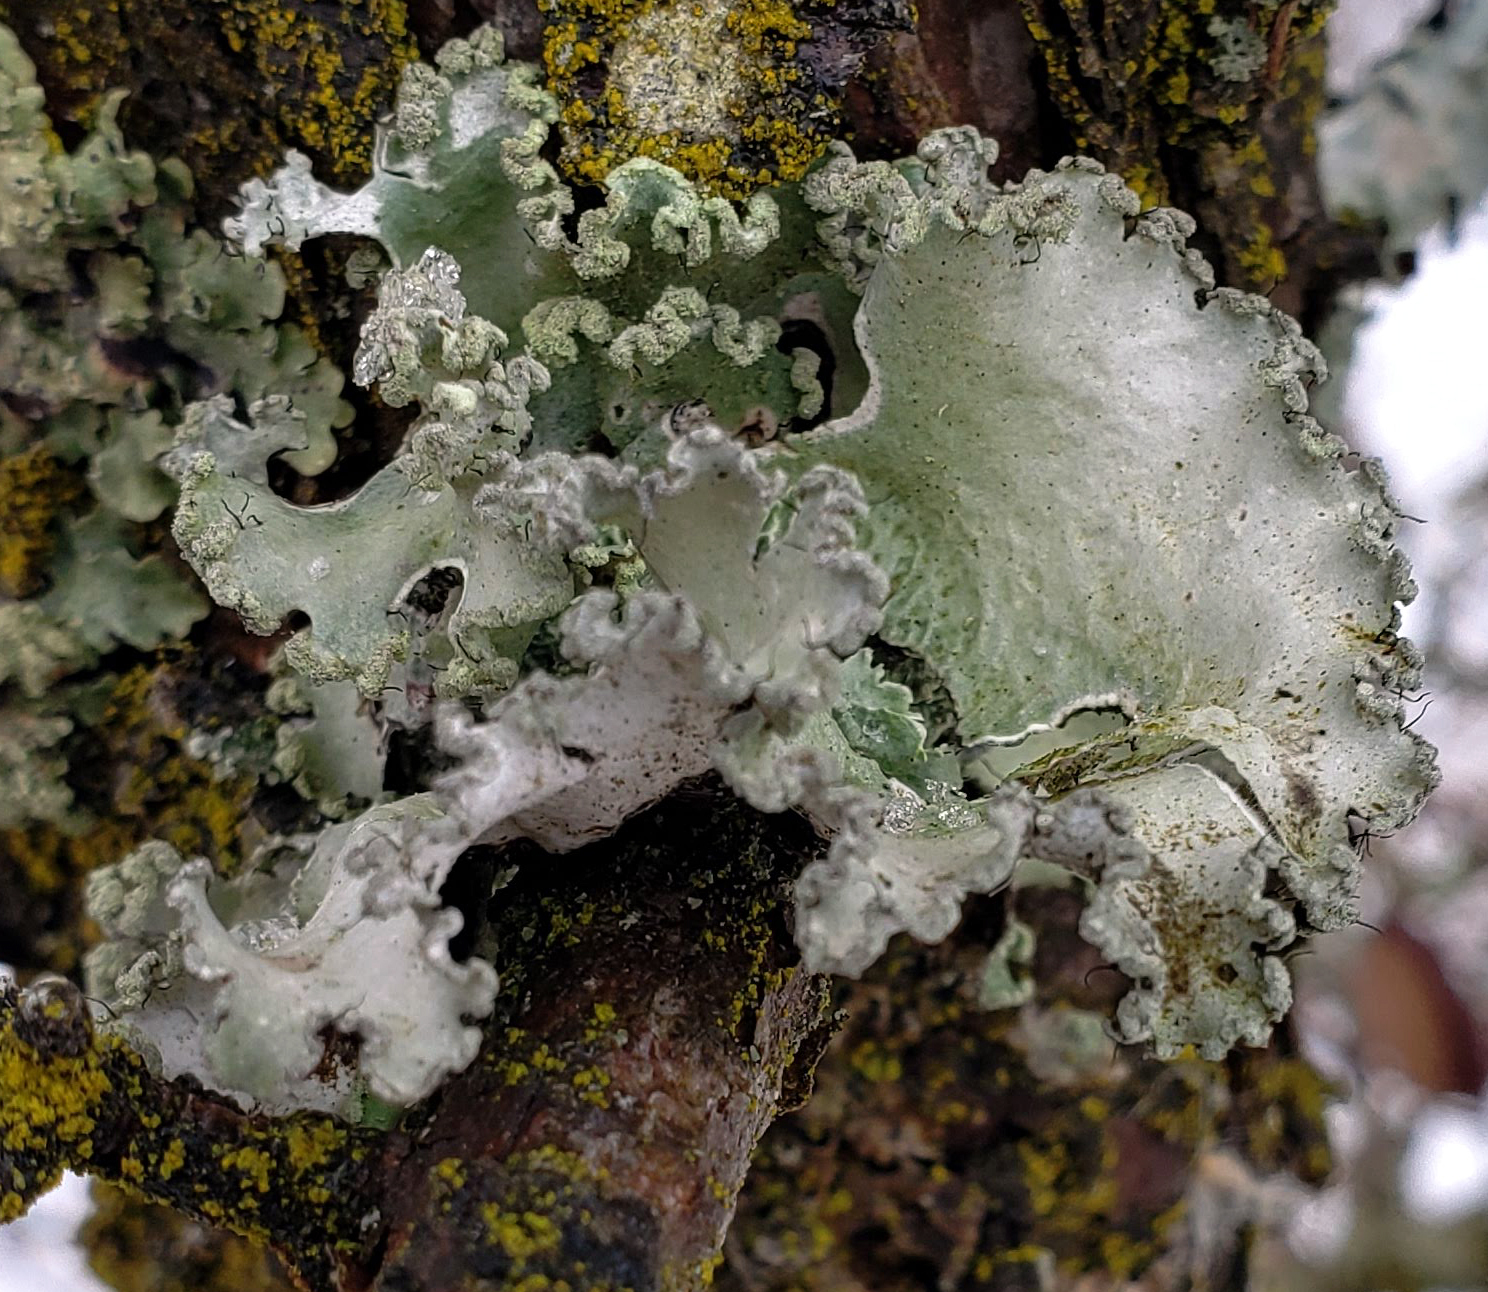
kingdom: Fungi
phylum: Ascomycota
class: Lecanoromycetes
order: Lecanorales
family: Parmeliaceae
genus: Parmotrema
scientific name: Parmotrema hypotropum
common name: Powdered ruffle lichen
